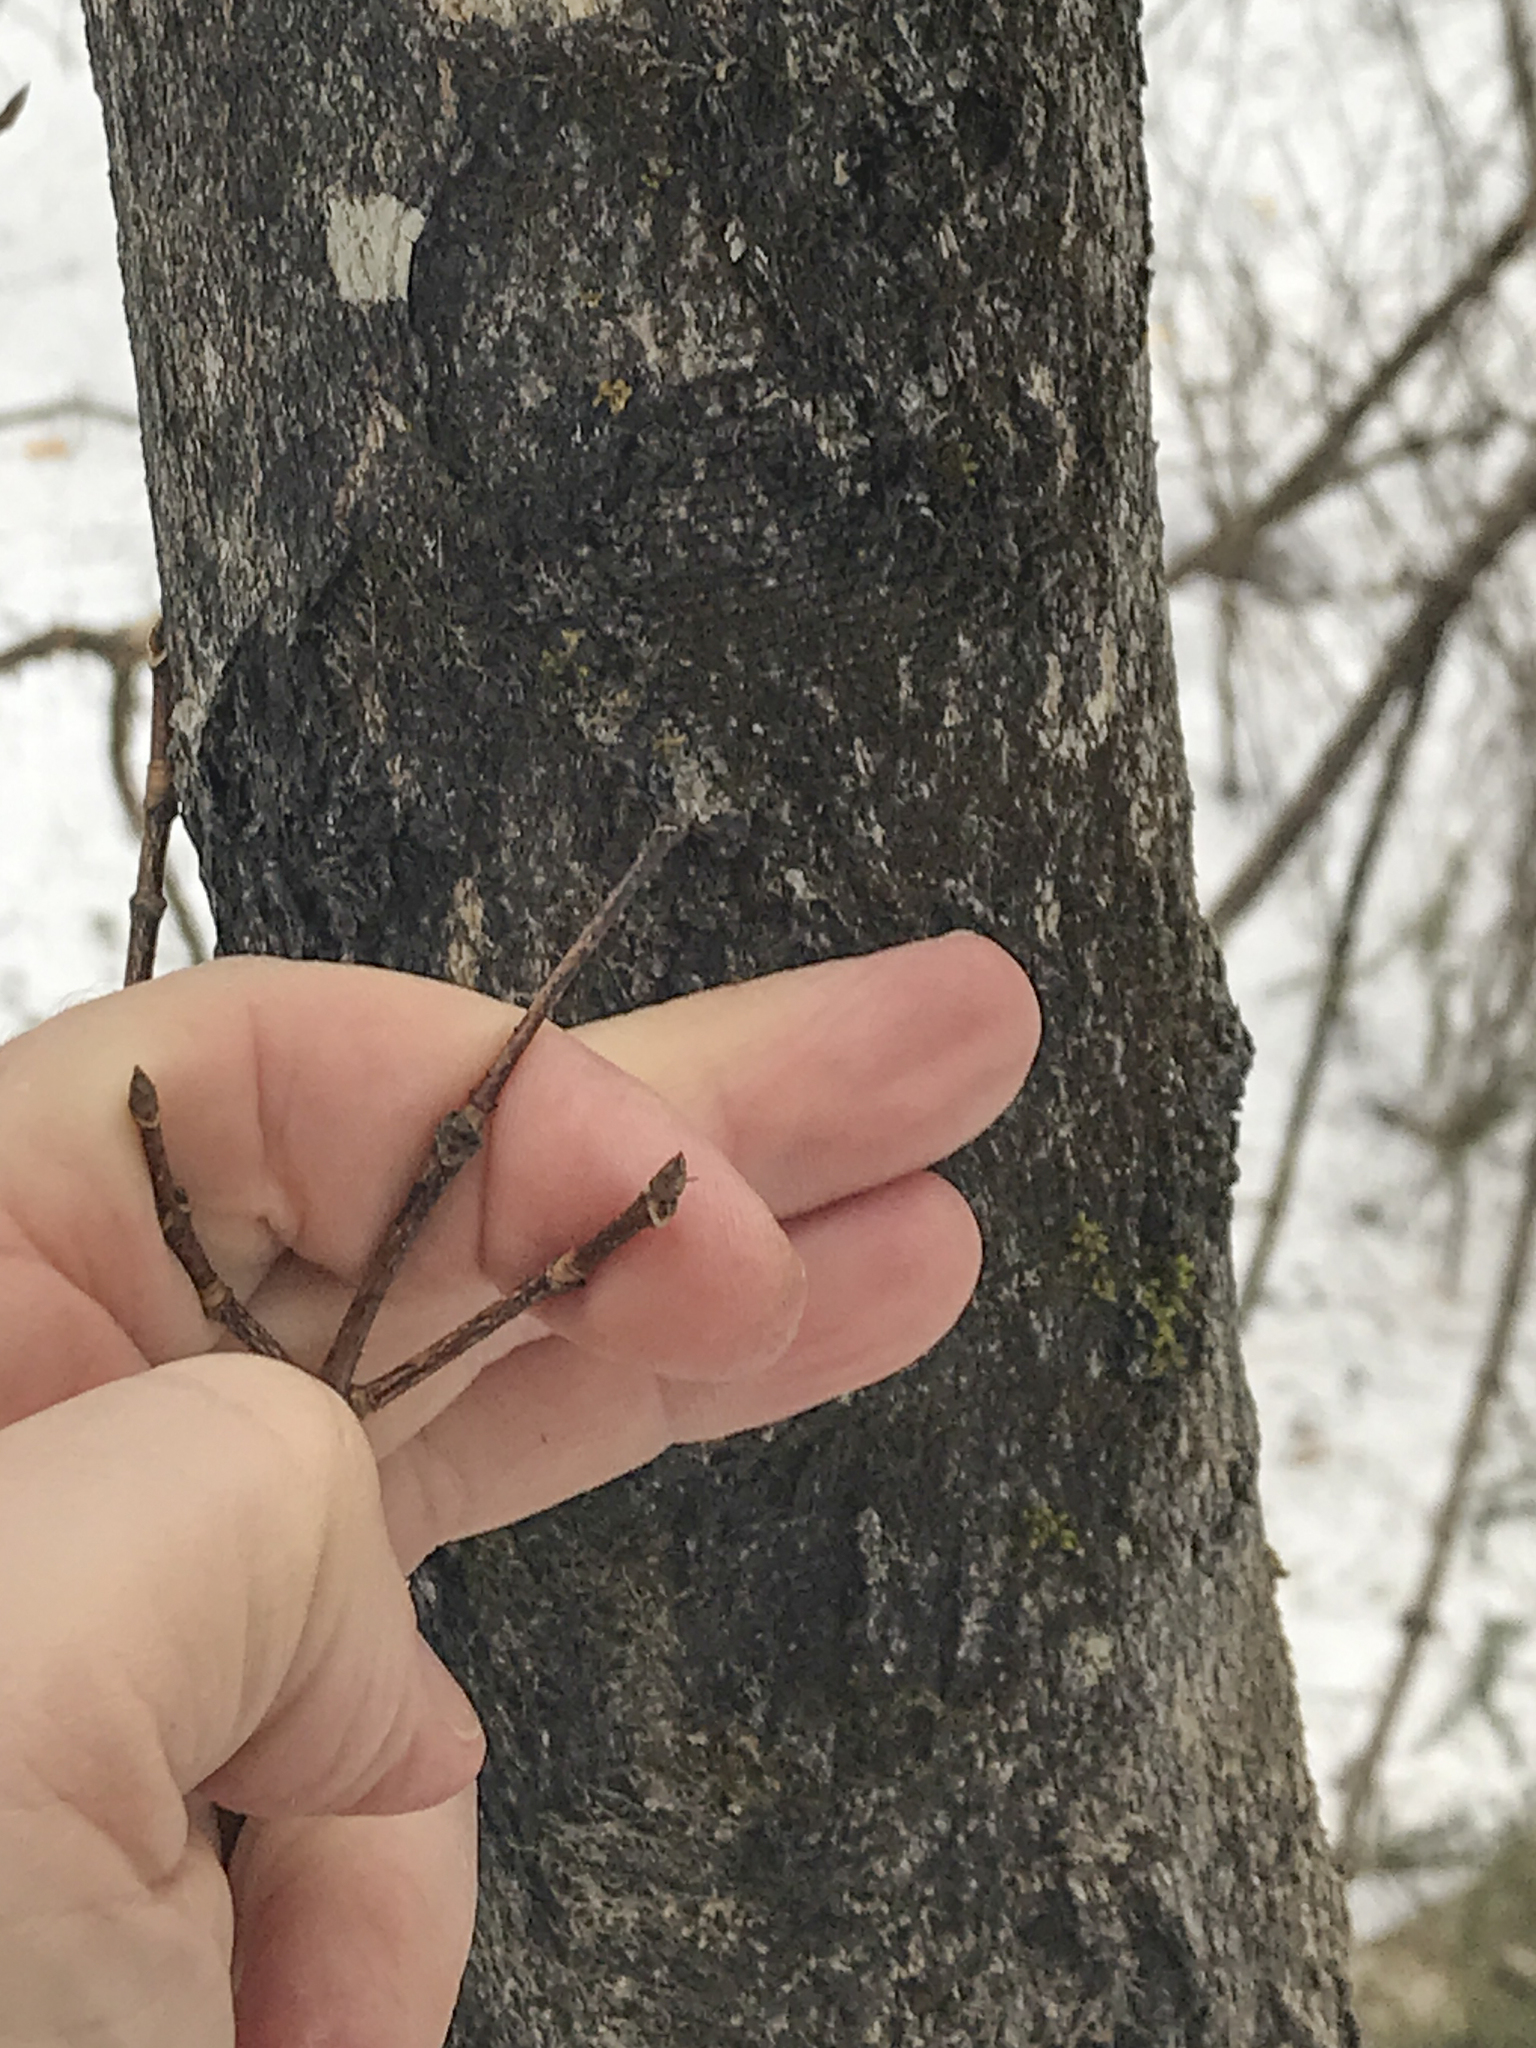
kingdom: Plantae
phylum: Tracheophyta
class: Magnoliopsida
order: Sapindales
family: Sapindaceae
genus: Acer
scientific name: Acer saccharum
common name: Sugar maple
